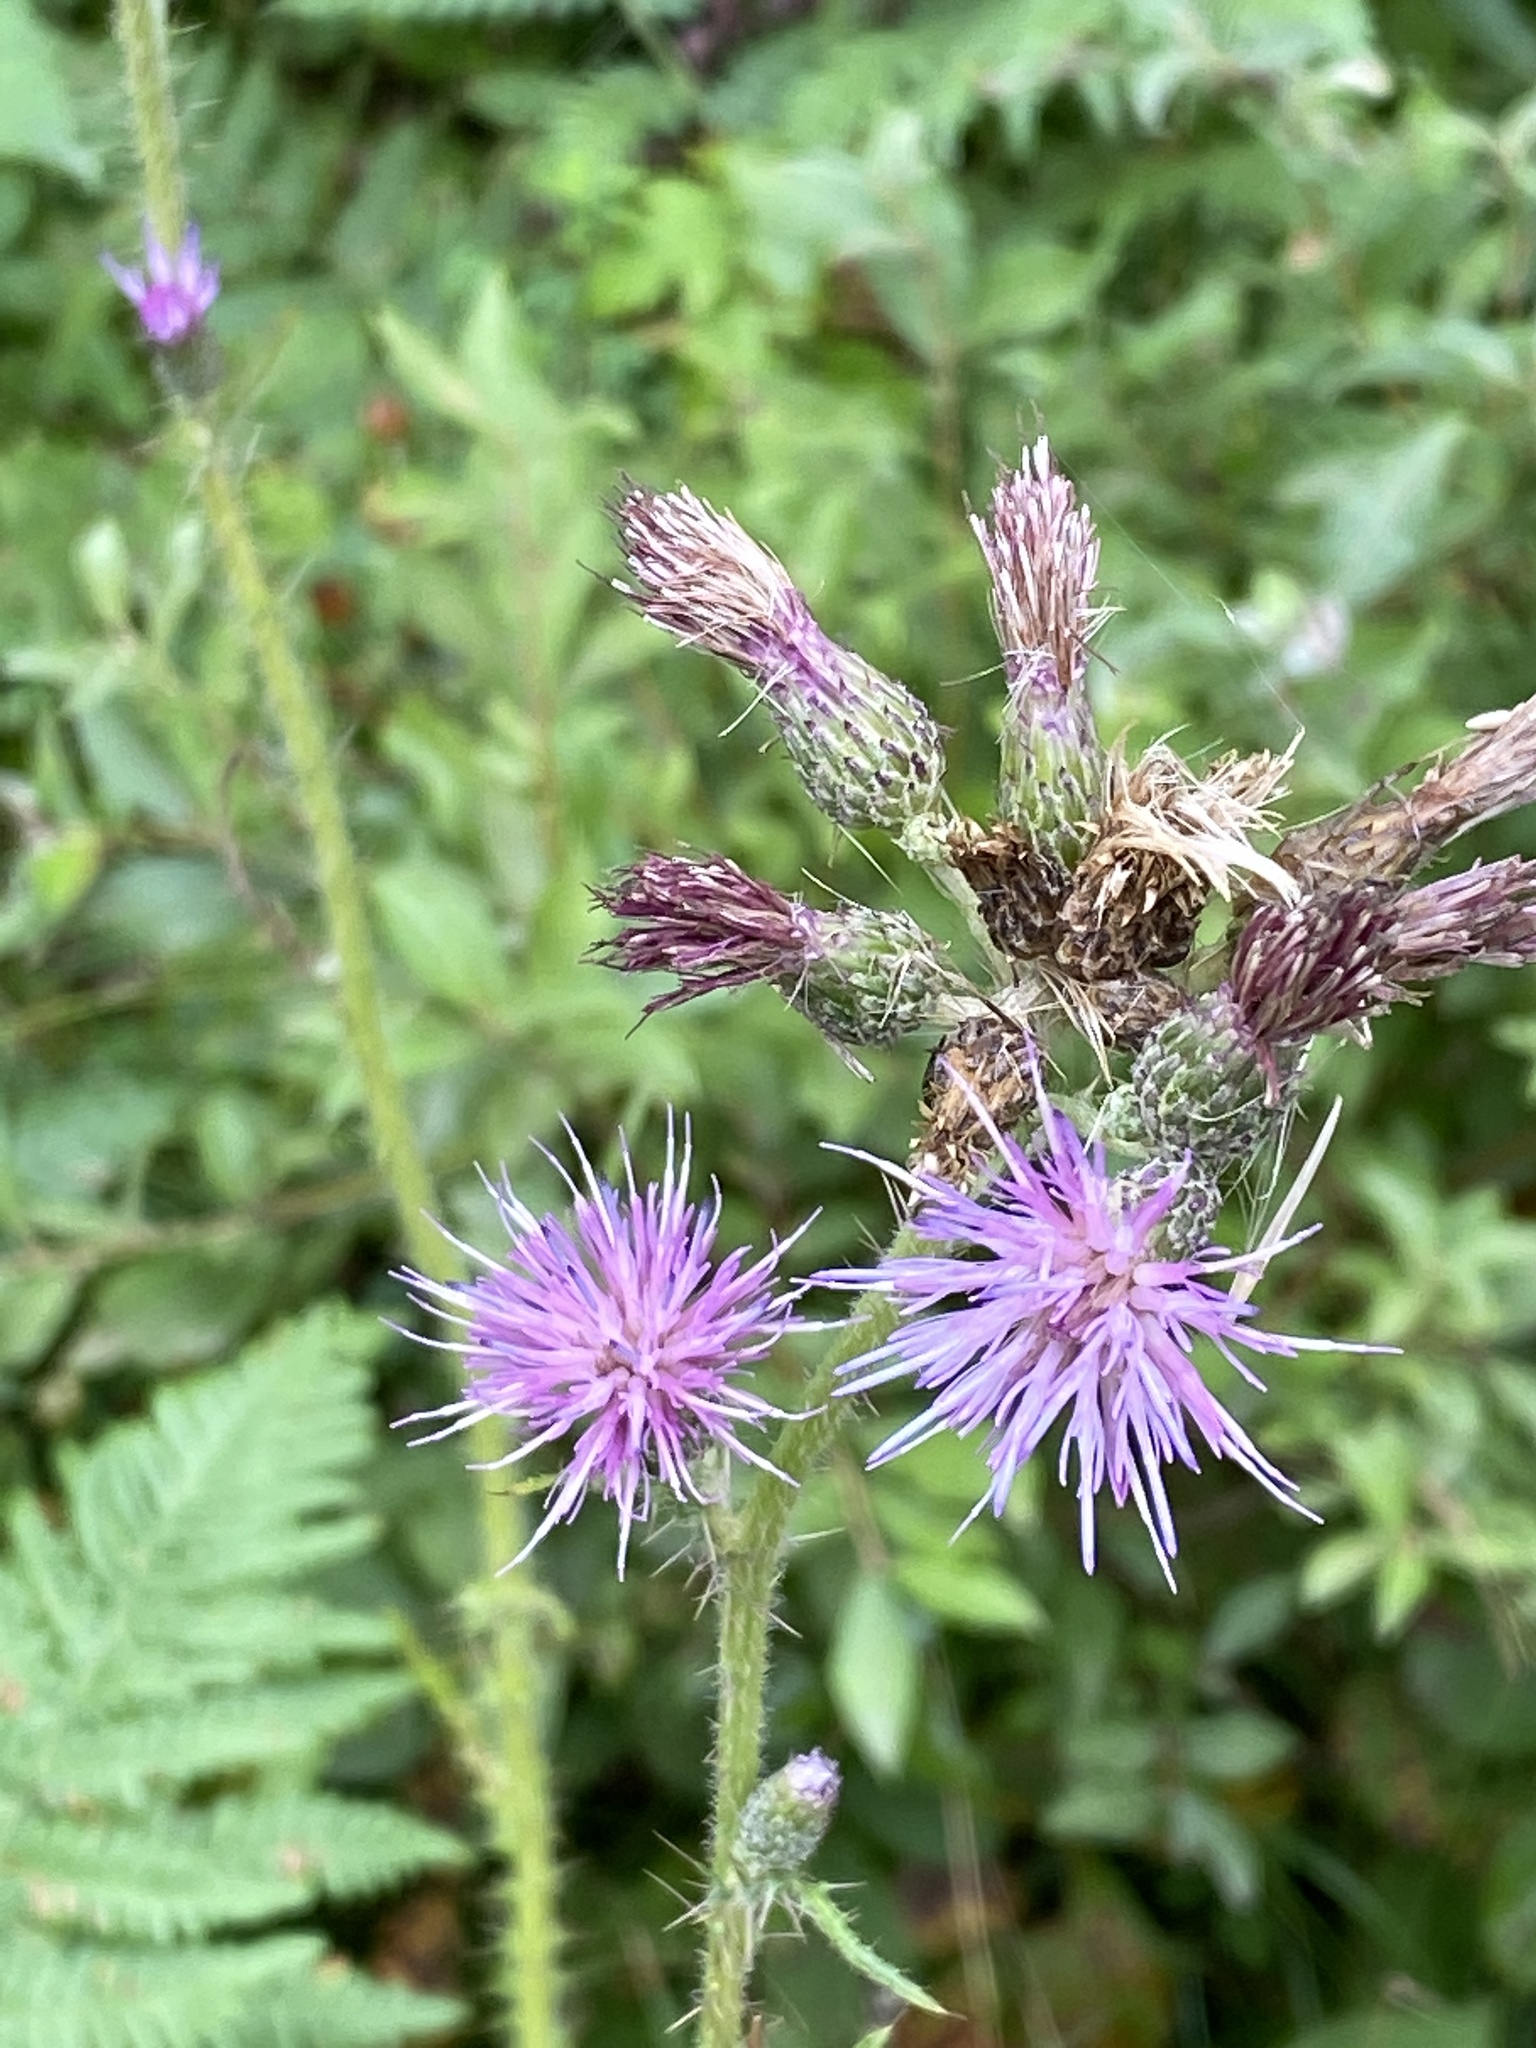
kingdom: Plantae
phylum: Tracheophyta
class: Magnoliopsida
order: Asterales
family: Asteraceae
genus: Cirsium
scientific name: Cirsium palustre
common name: Marsh thistle
